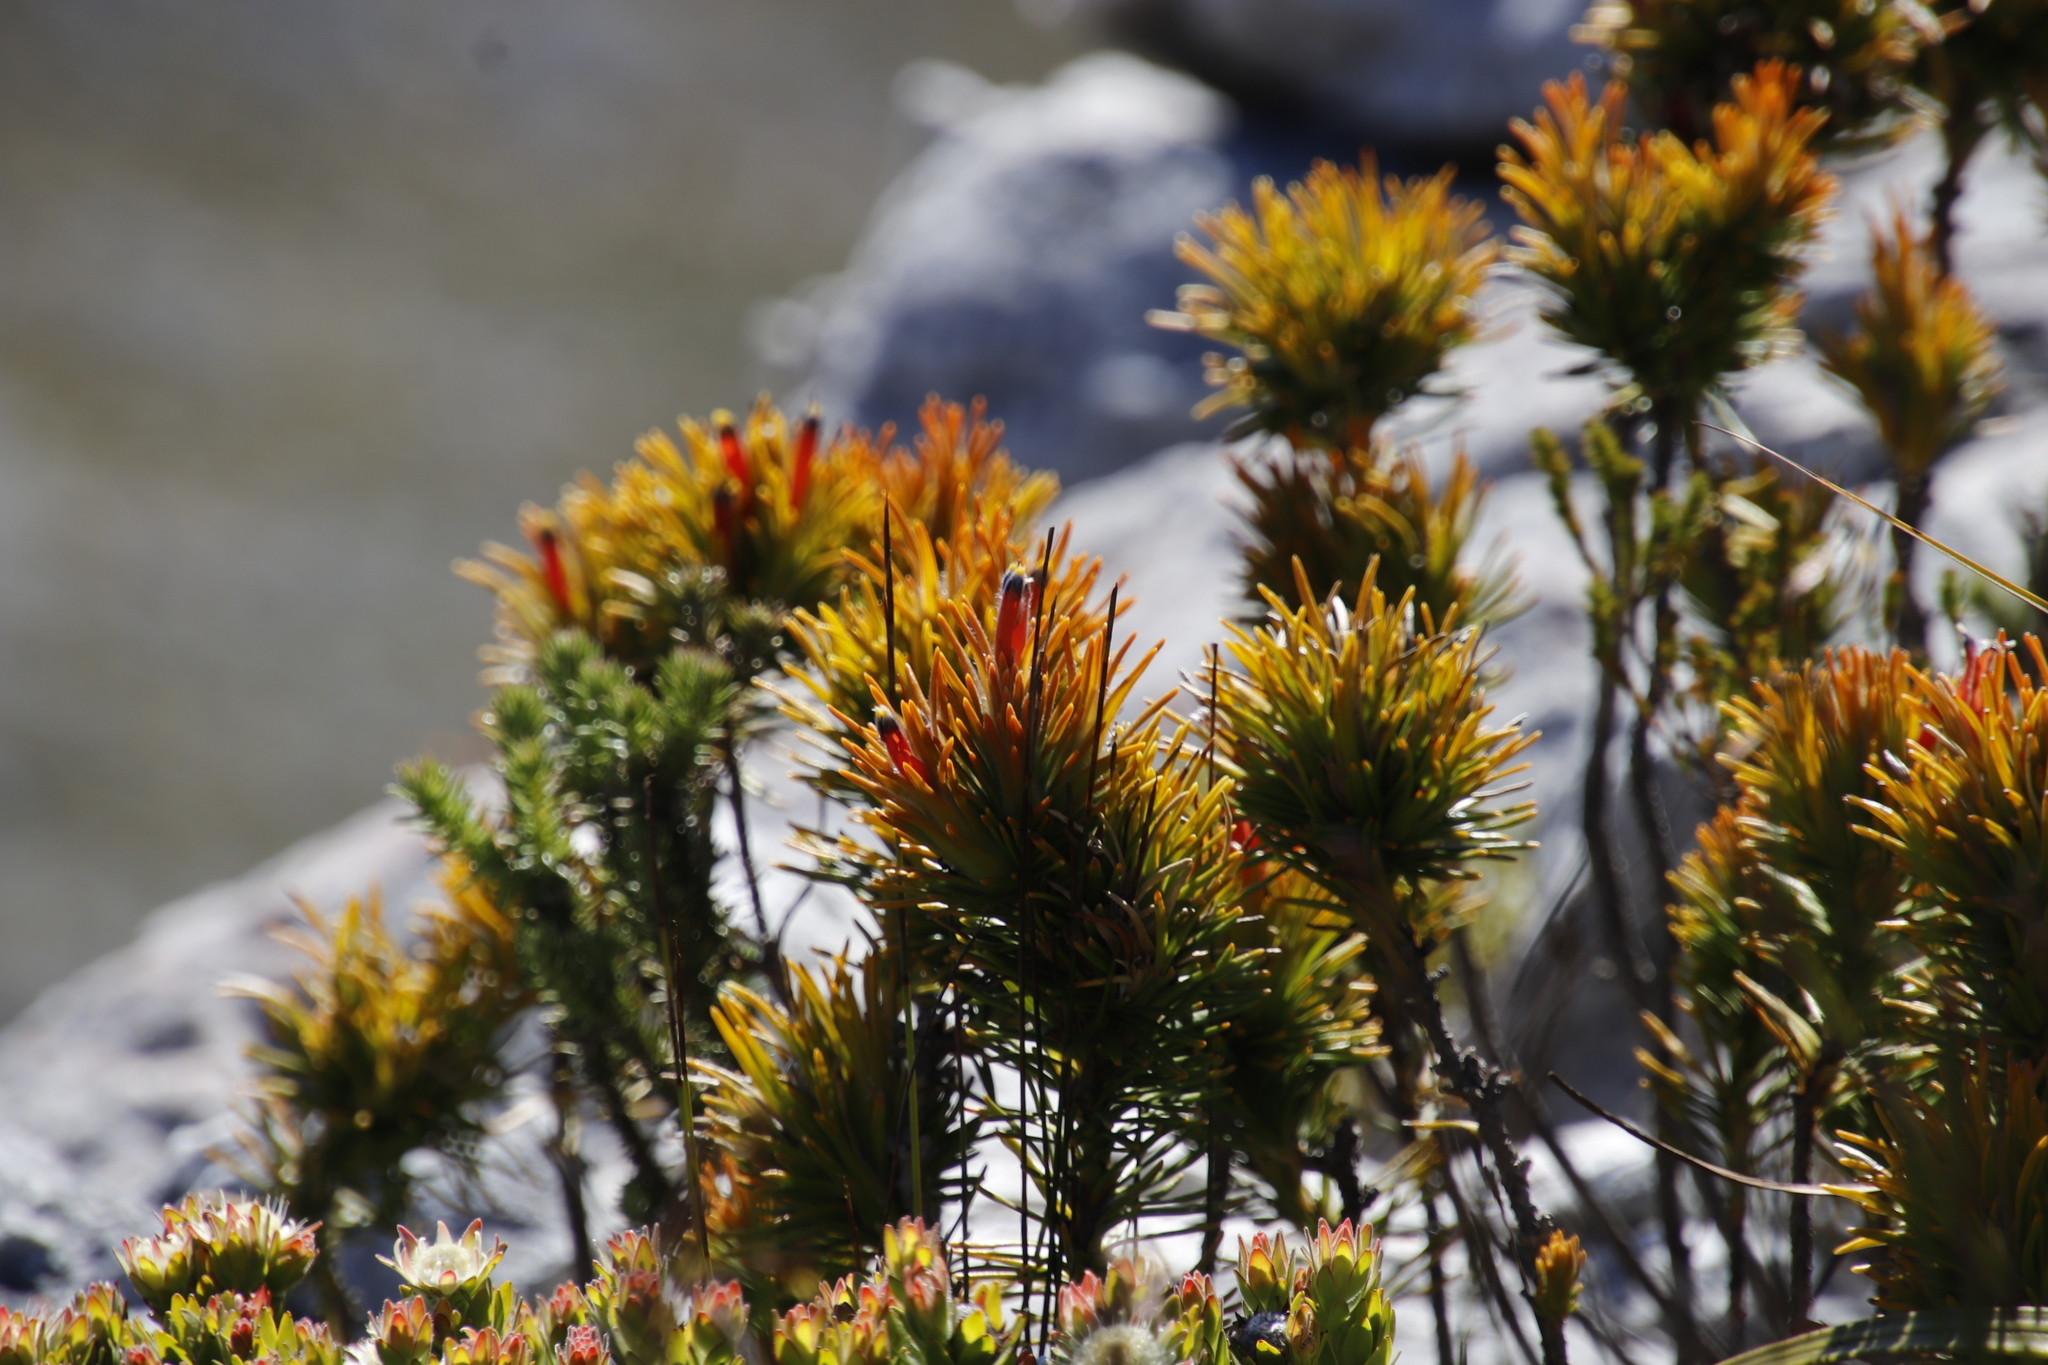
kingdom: Plantae
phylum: Tracheophyta
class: Magnoliopsida
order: Lamiales
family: Stilbaceae
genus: Retzia
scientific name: Retzia capensis
